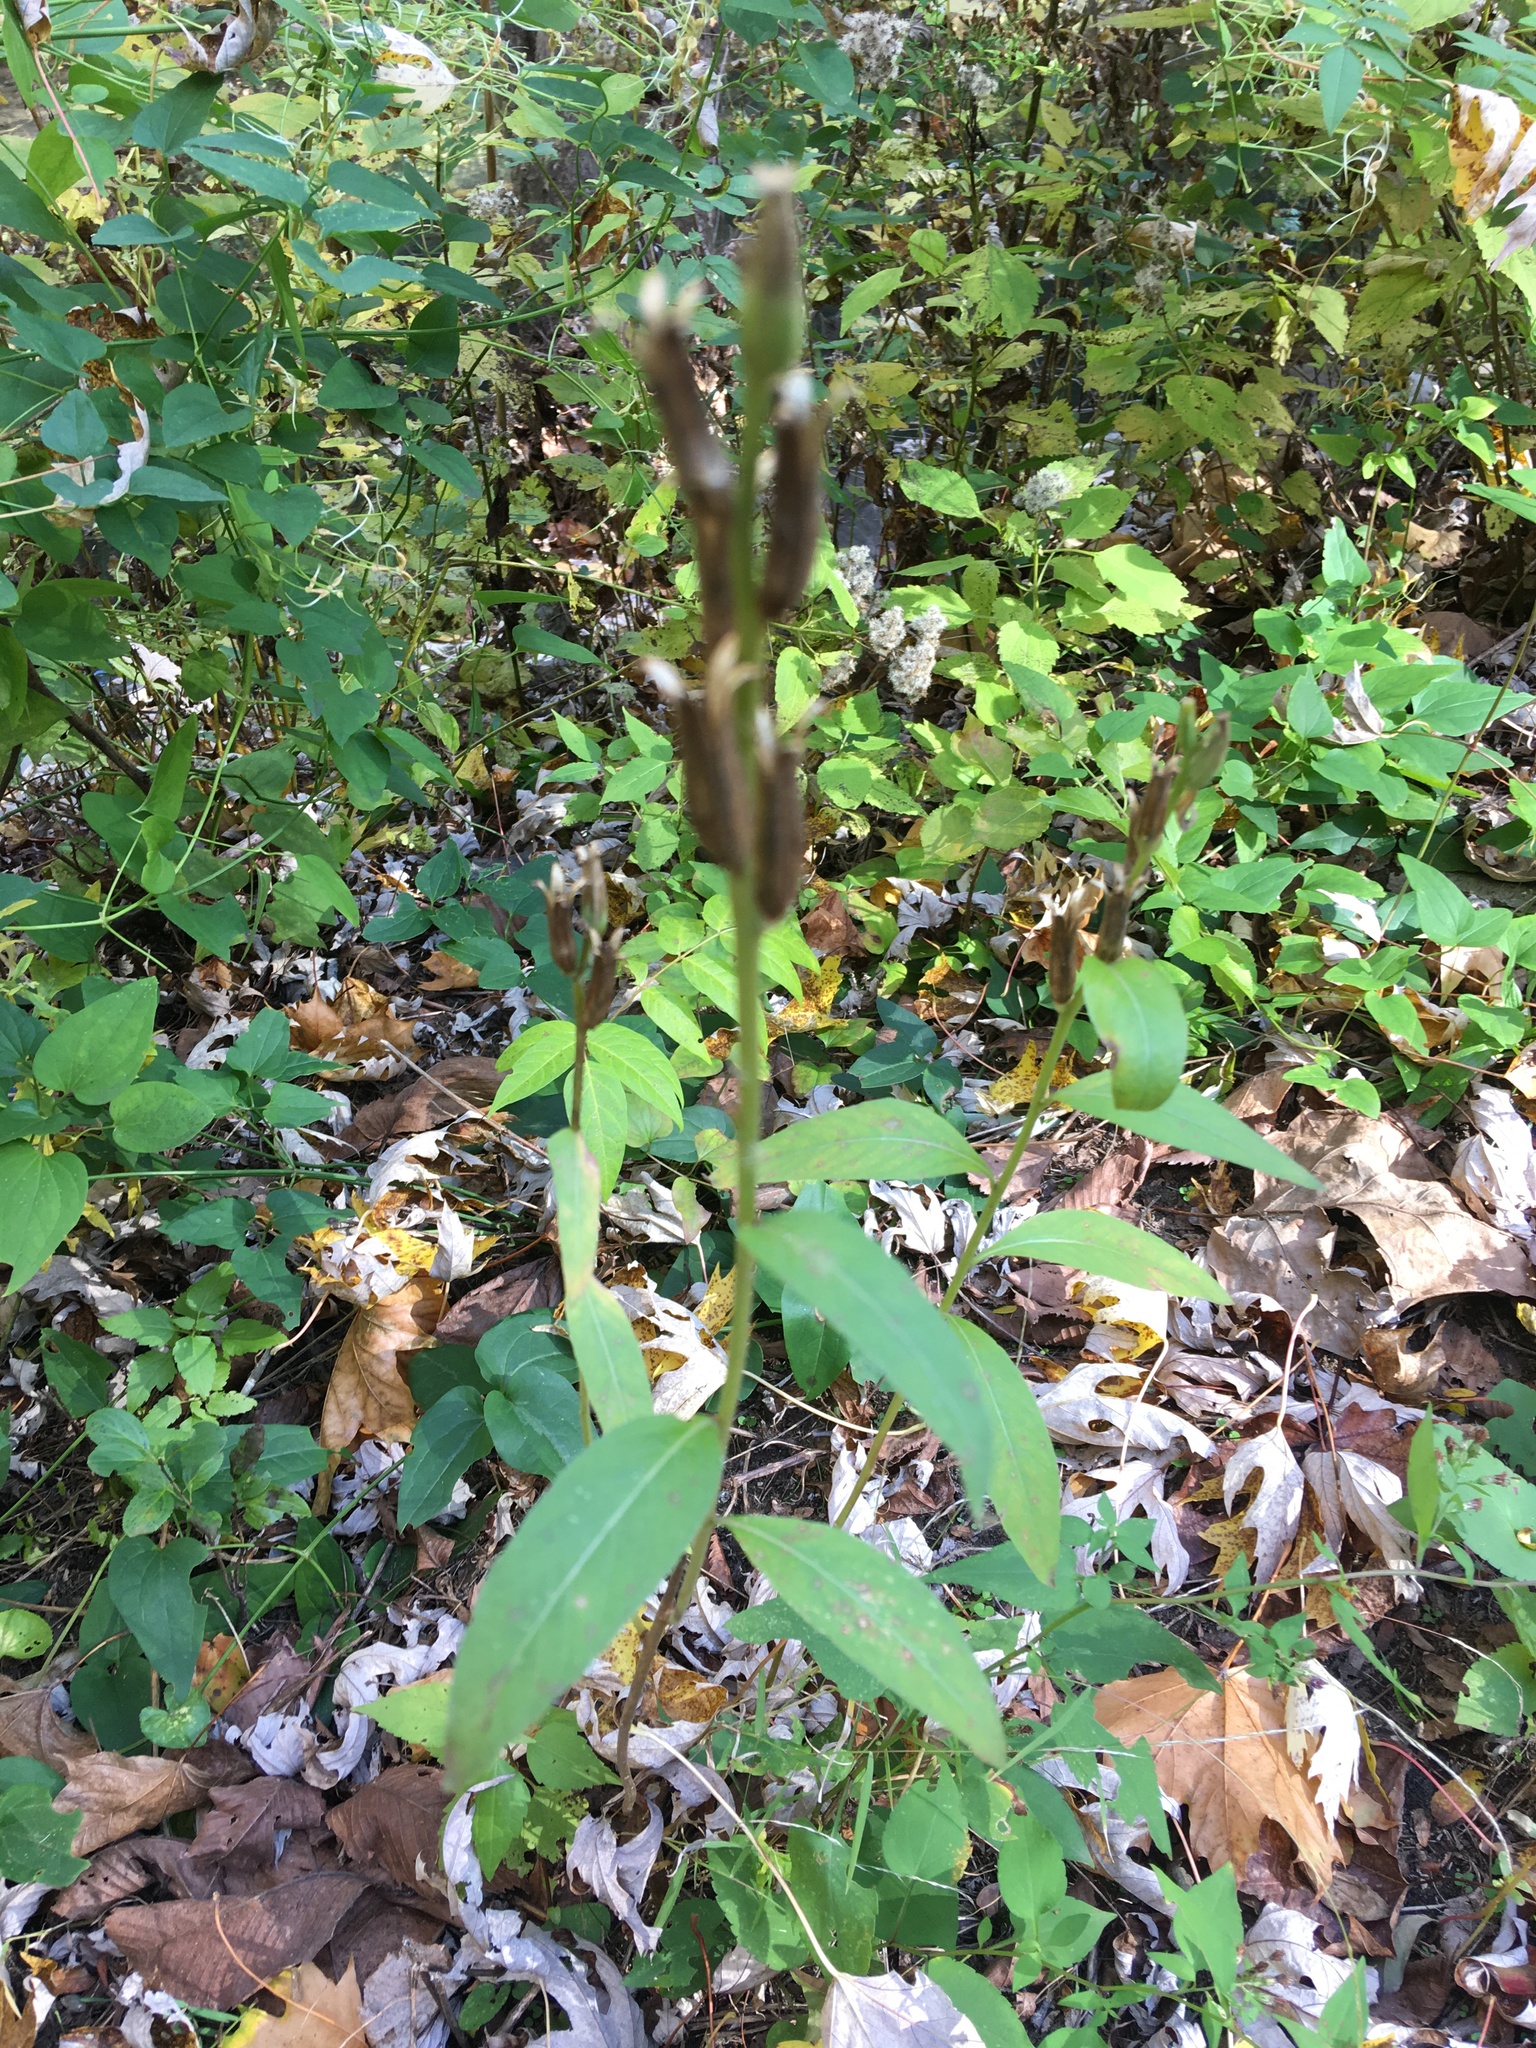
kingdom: Plantae
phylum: Tracheophyta
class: Magnoliopsida
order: Myrtales
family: Onagraceae
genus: Oenothera
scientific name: Oenothera biennis
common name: Common evening-primrose
